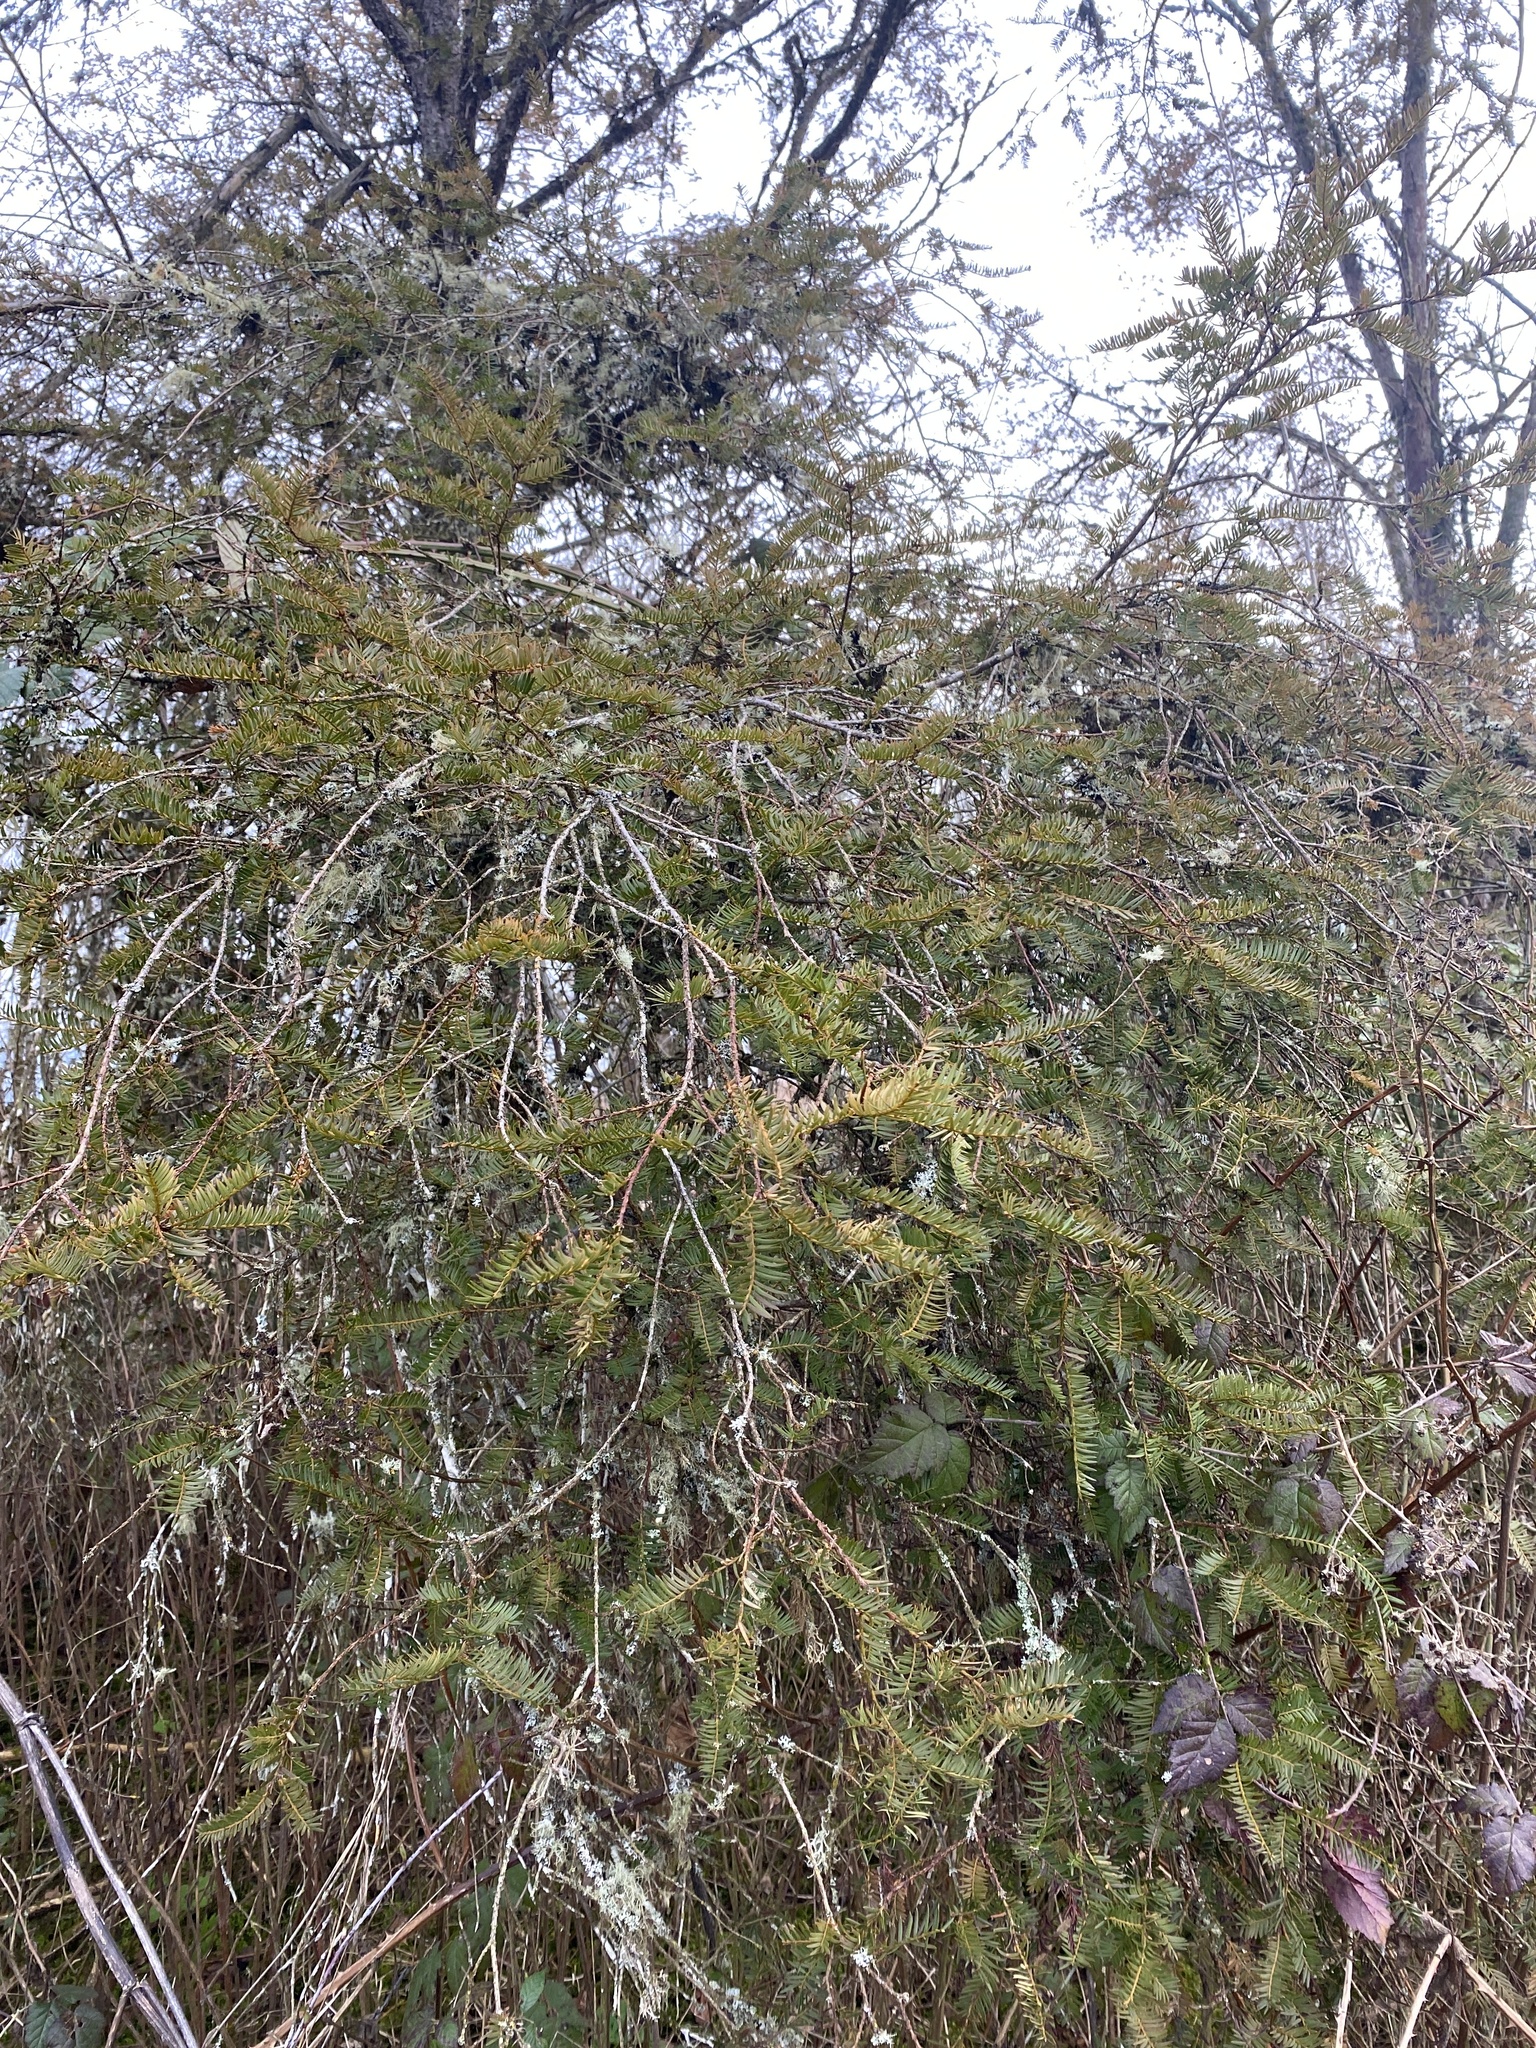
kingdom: Plantae
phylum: Tracheophyta
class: Pinopsida
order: Pinales
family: Taxaceae
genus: Taxus
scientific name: Taxus brevifolia
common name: Pacific yew
